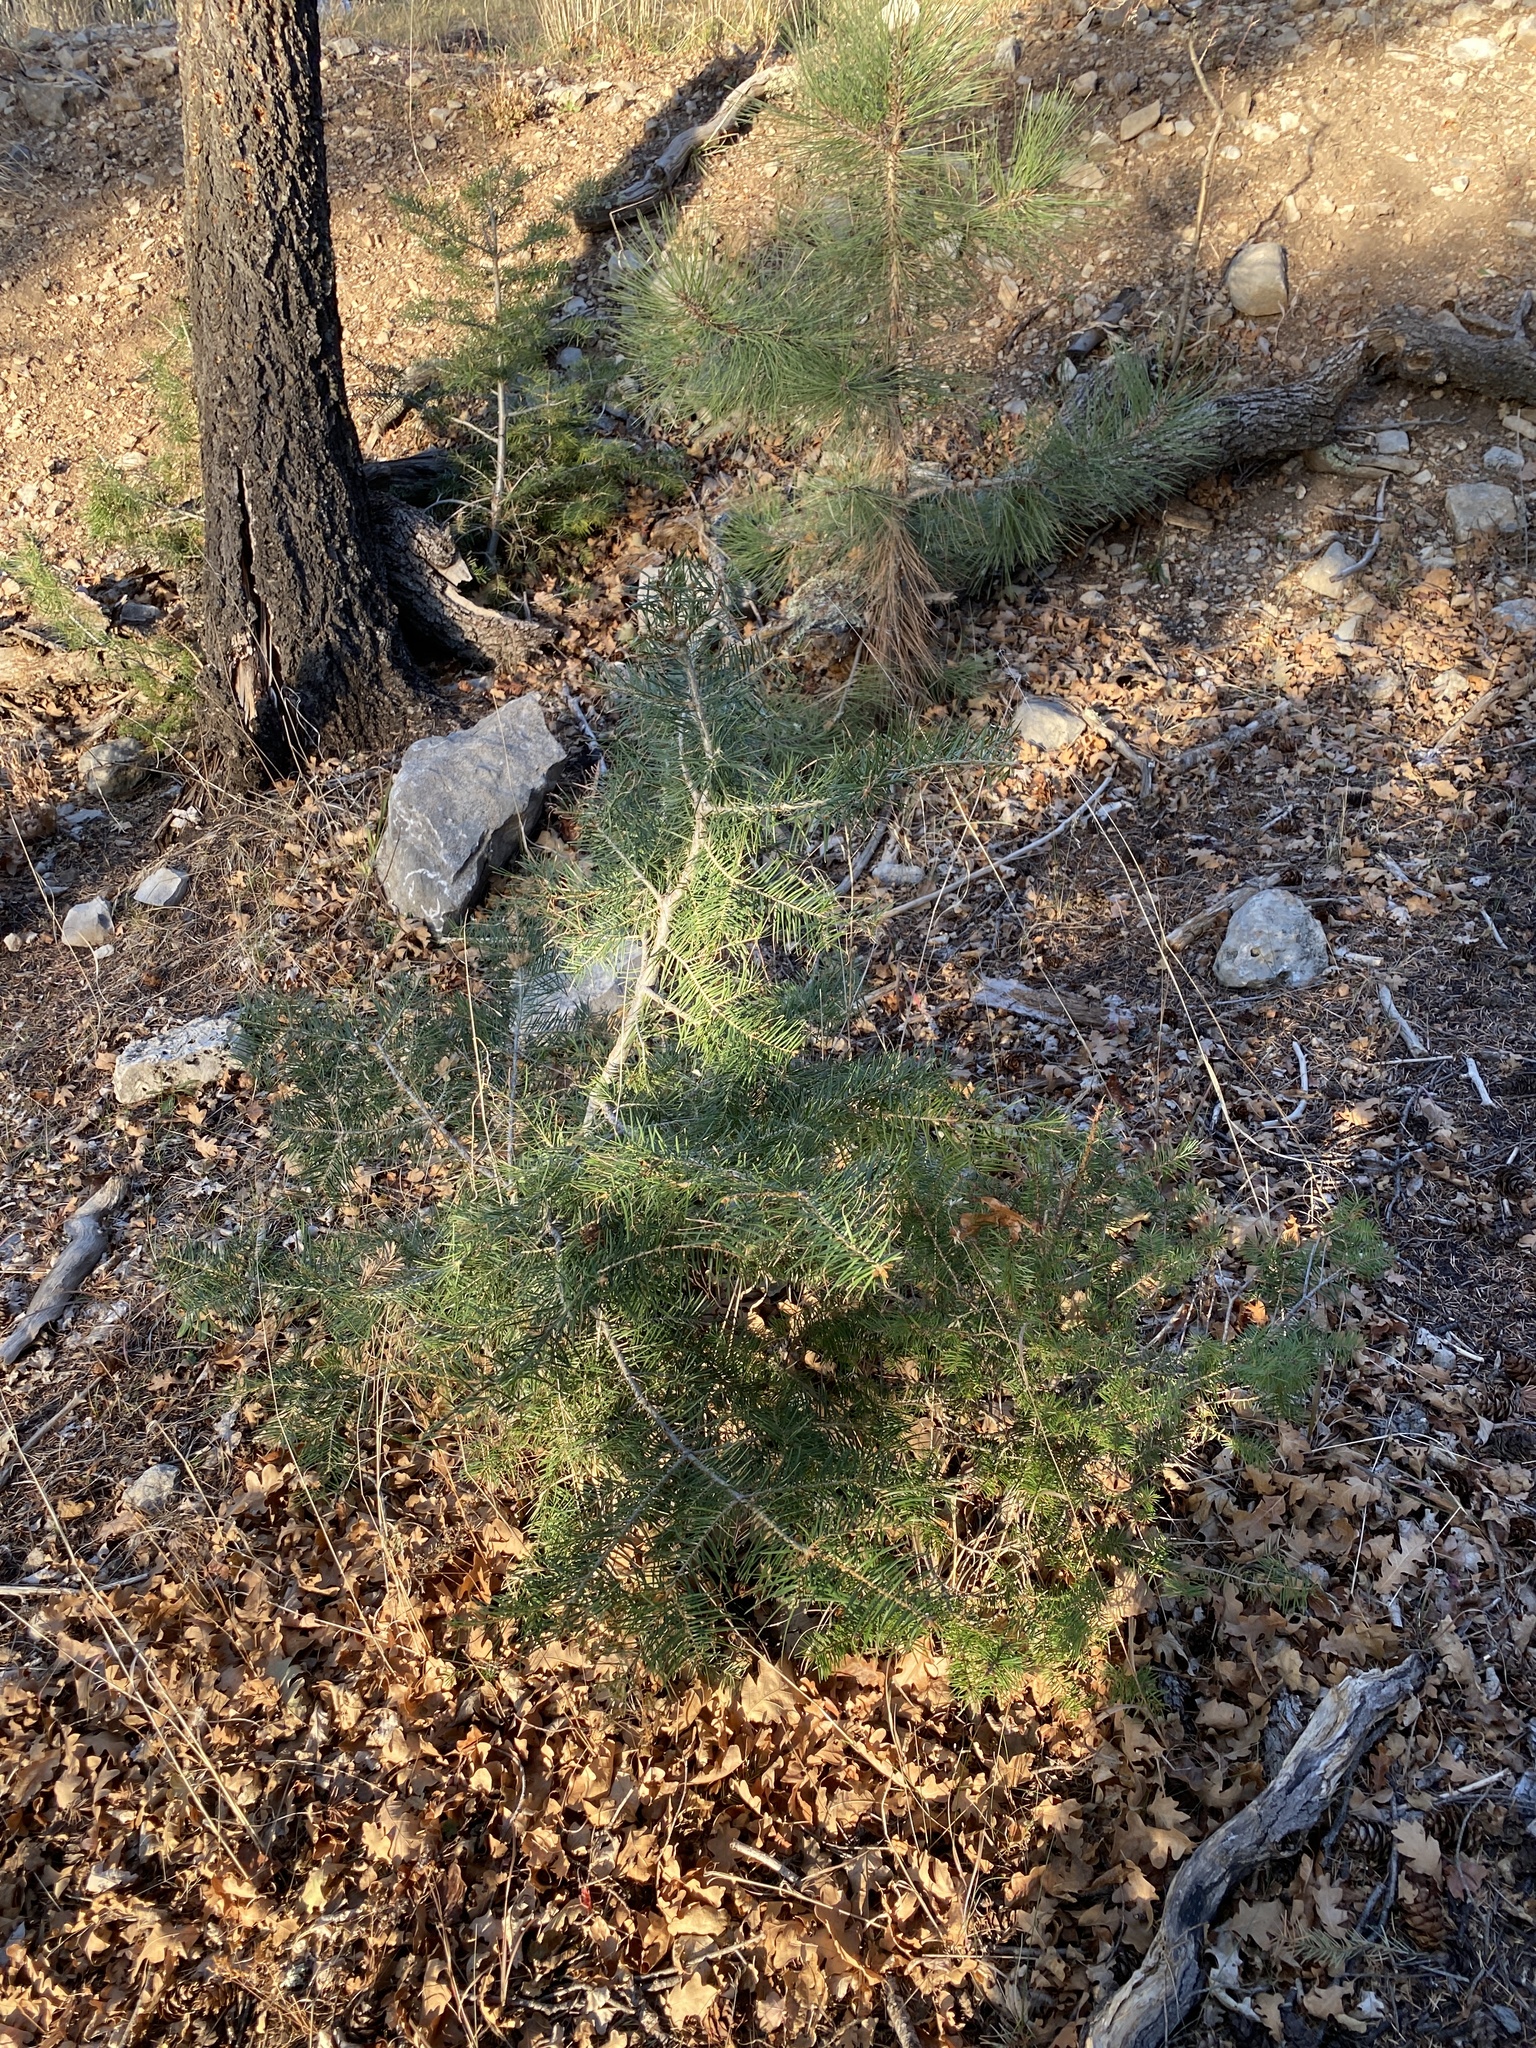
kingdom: Plantae
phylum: Tracheophyta
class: Pinopsida
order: Pinales
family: Pinaceae
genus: Abies
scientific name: Abies concolor
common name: Colorado fir
